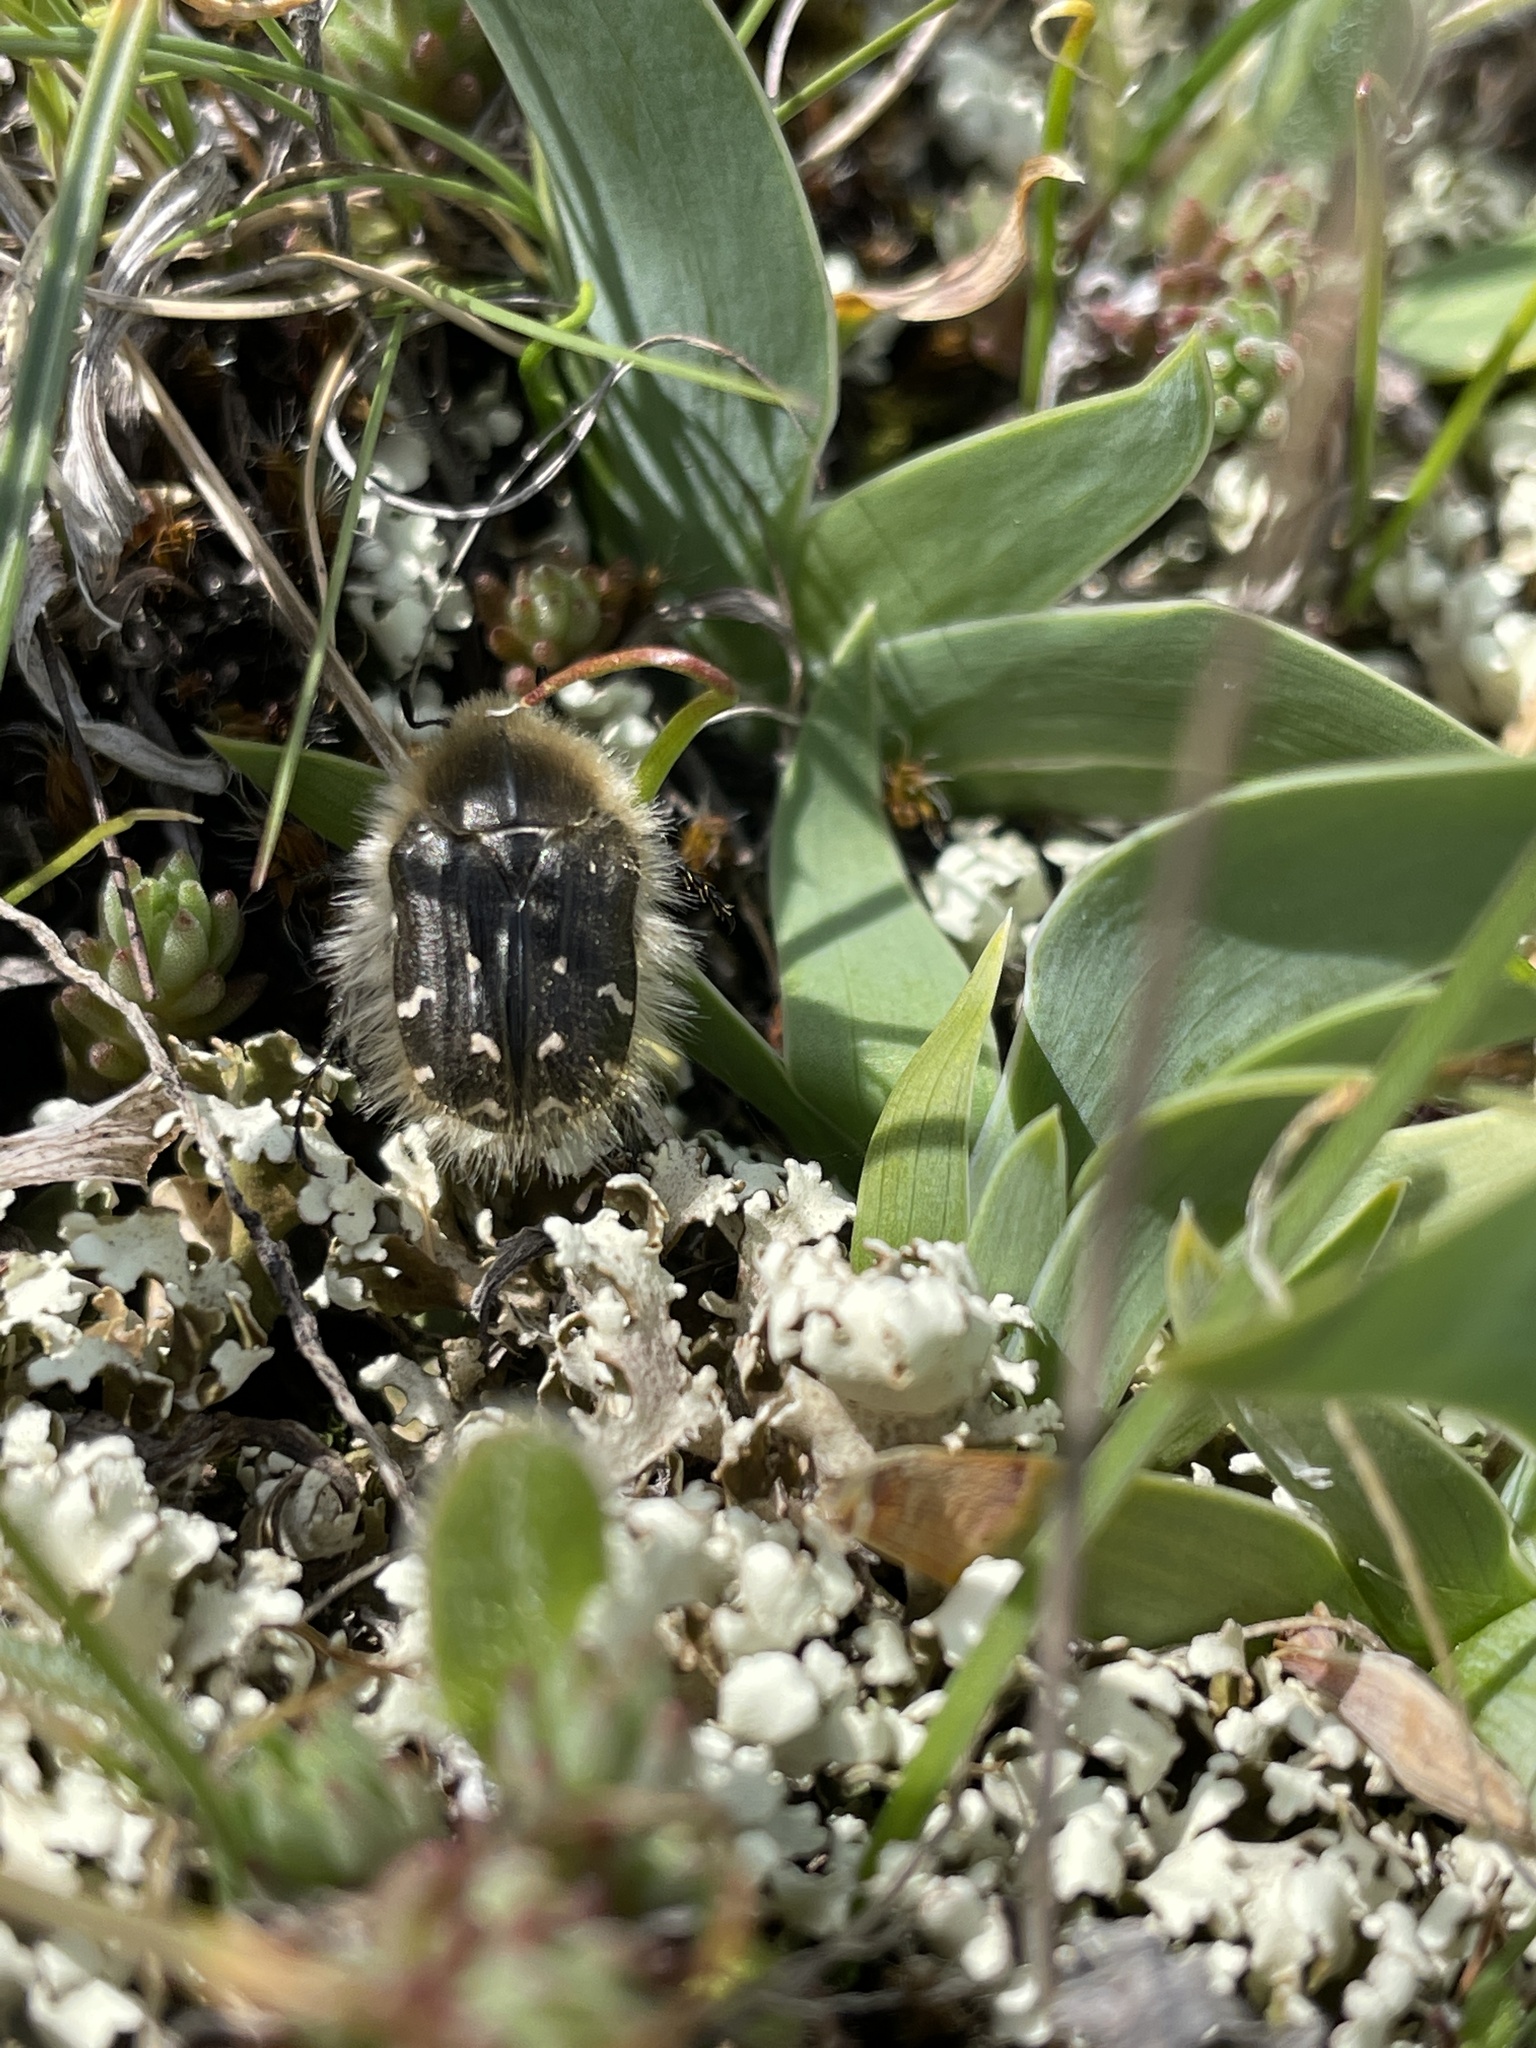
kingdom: Animalia
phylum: Arthropoda
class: Insecta
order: Coleoptera
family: Scarabaeidae
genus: Tropinota
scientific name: Tropinota hirta
